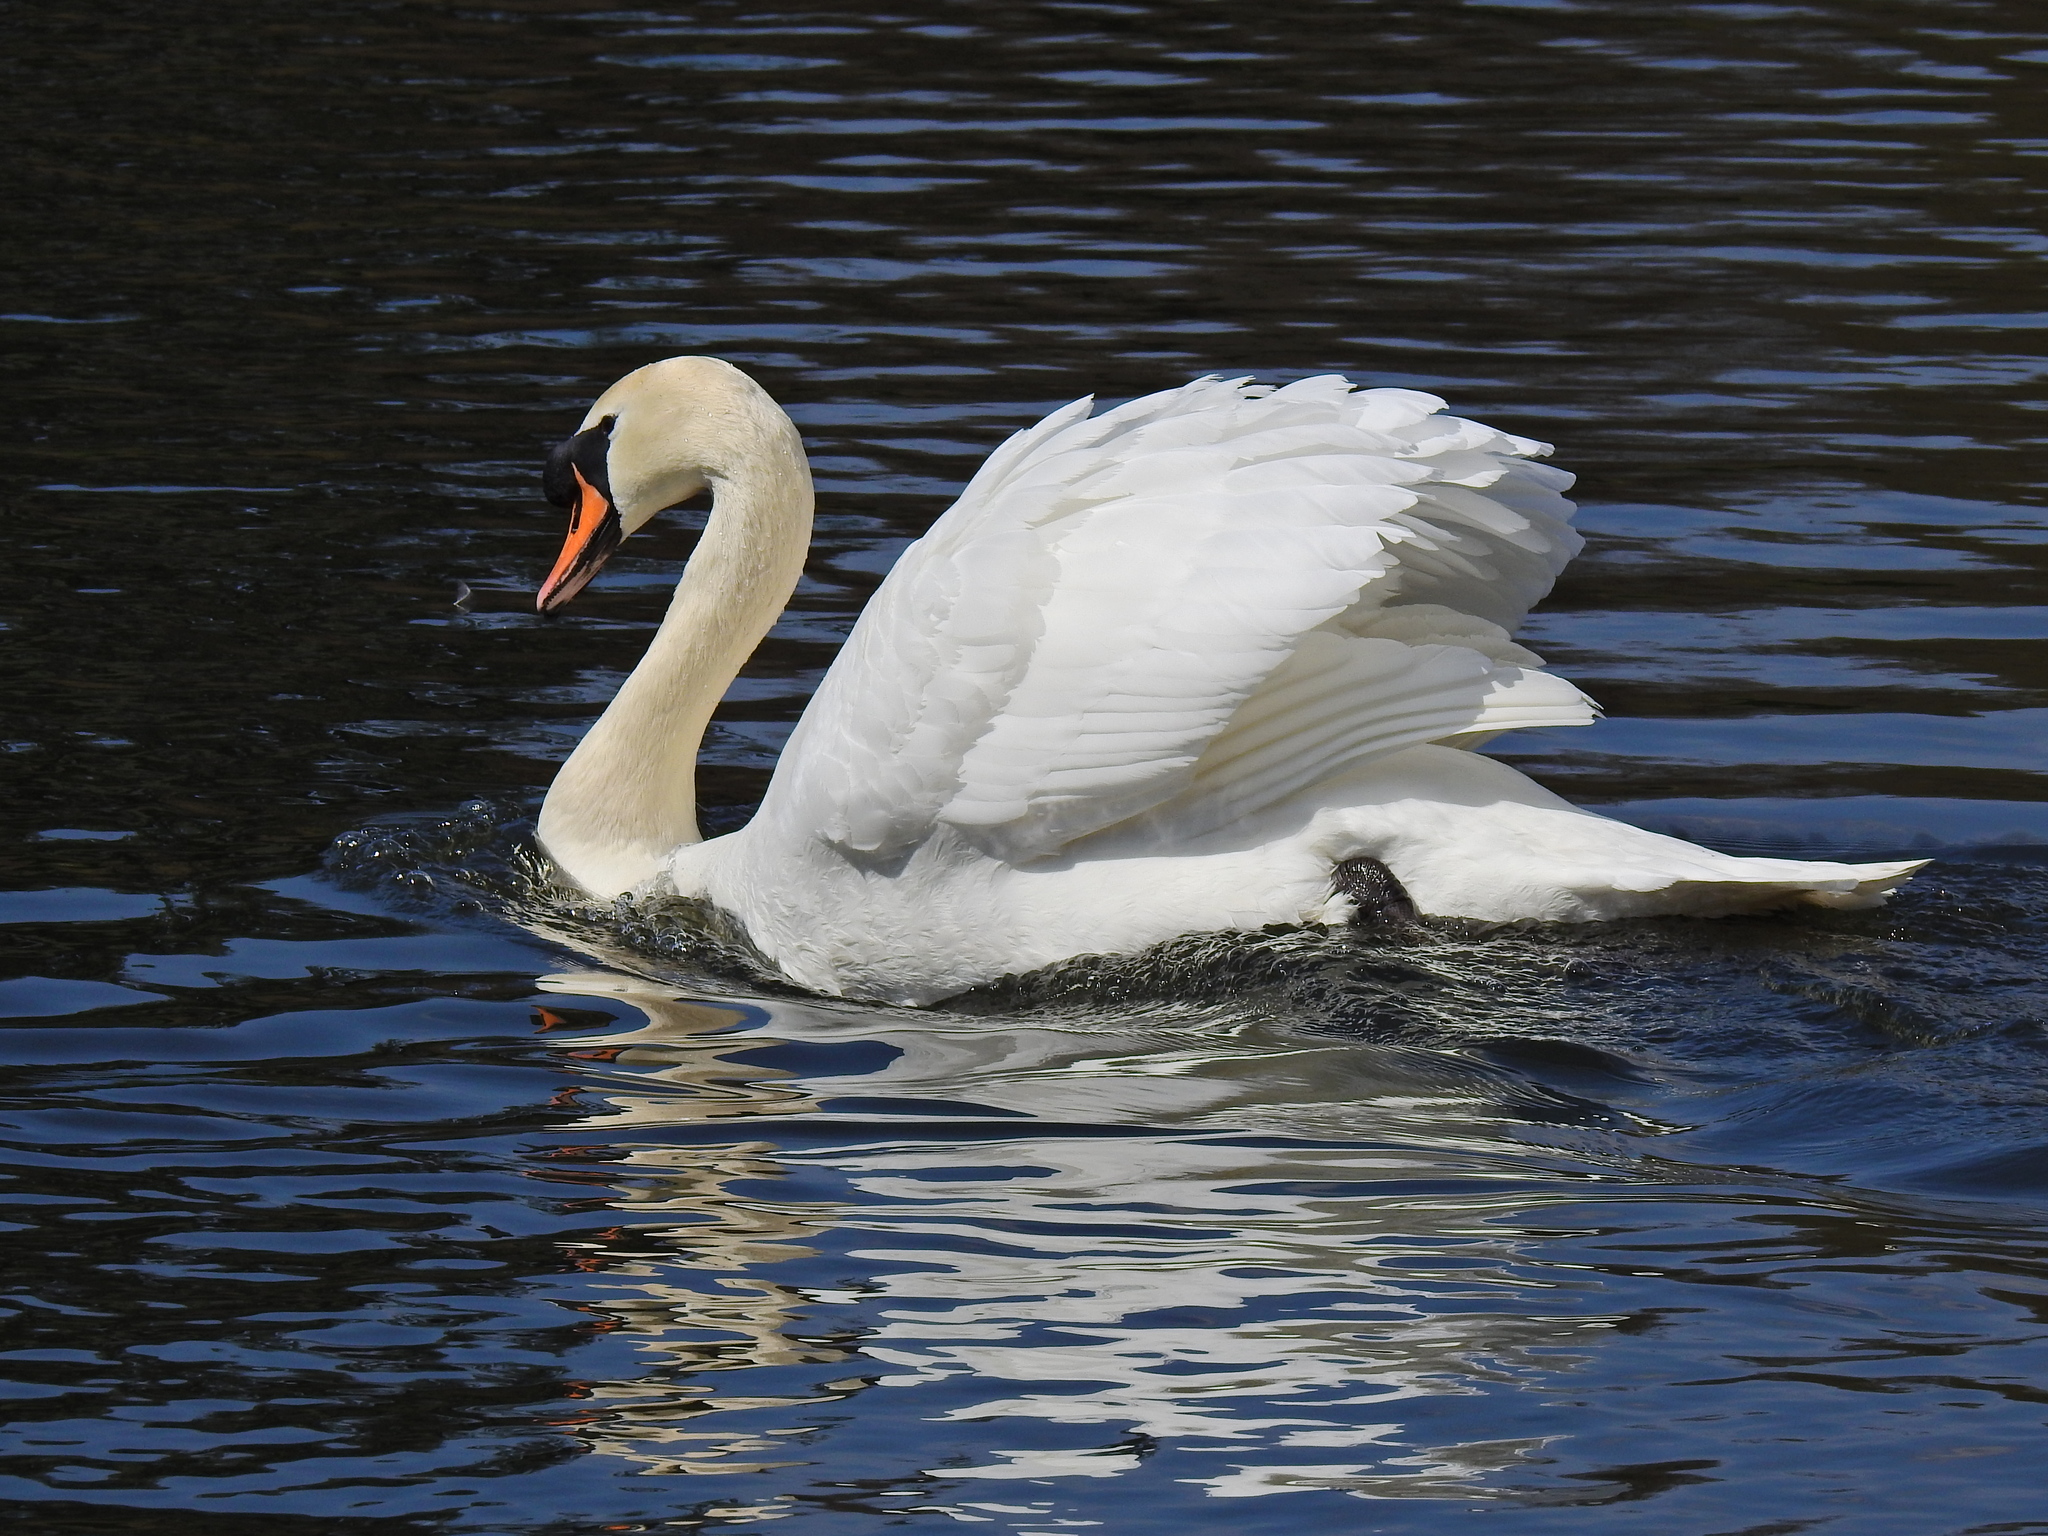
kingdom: Animalia
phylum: Chordata
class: Aves
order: Anseriformes
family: Anatidae
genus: Cygnus
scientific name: Cygnus olor
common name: Mute swan
